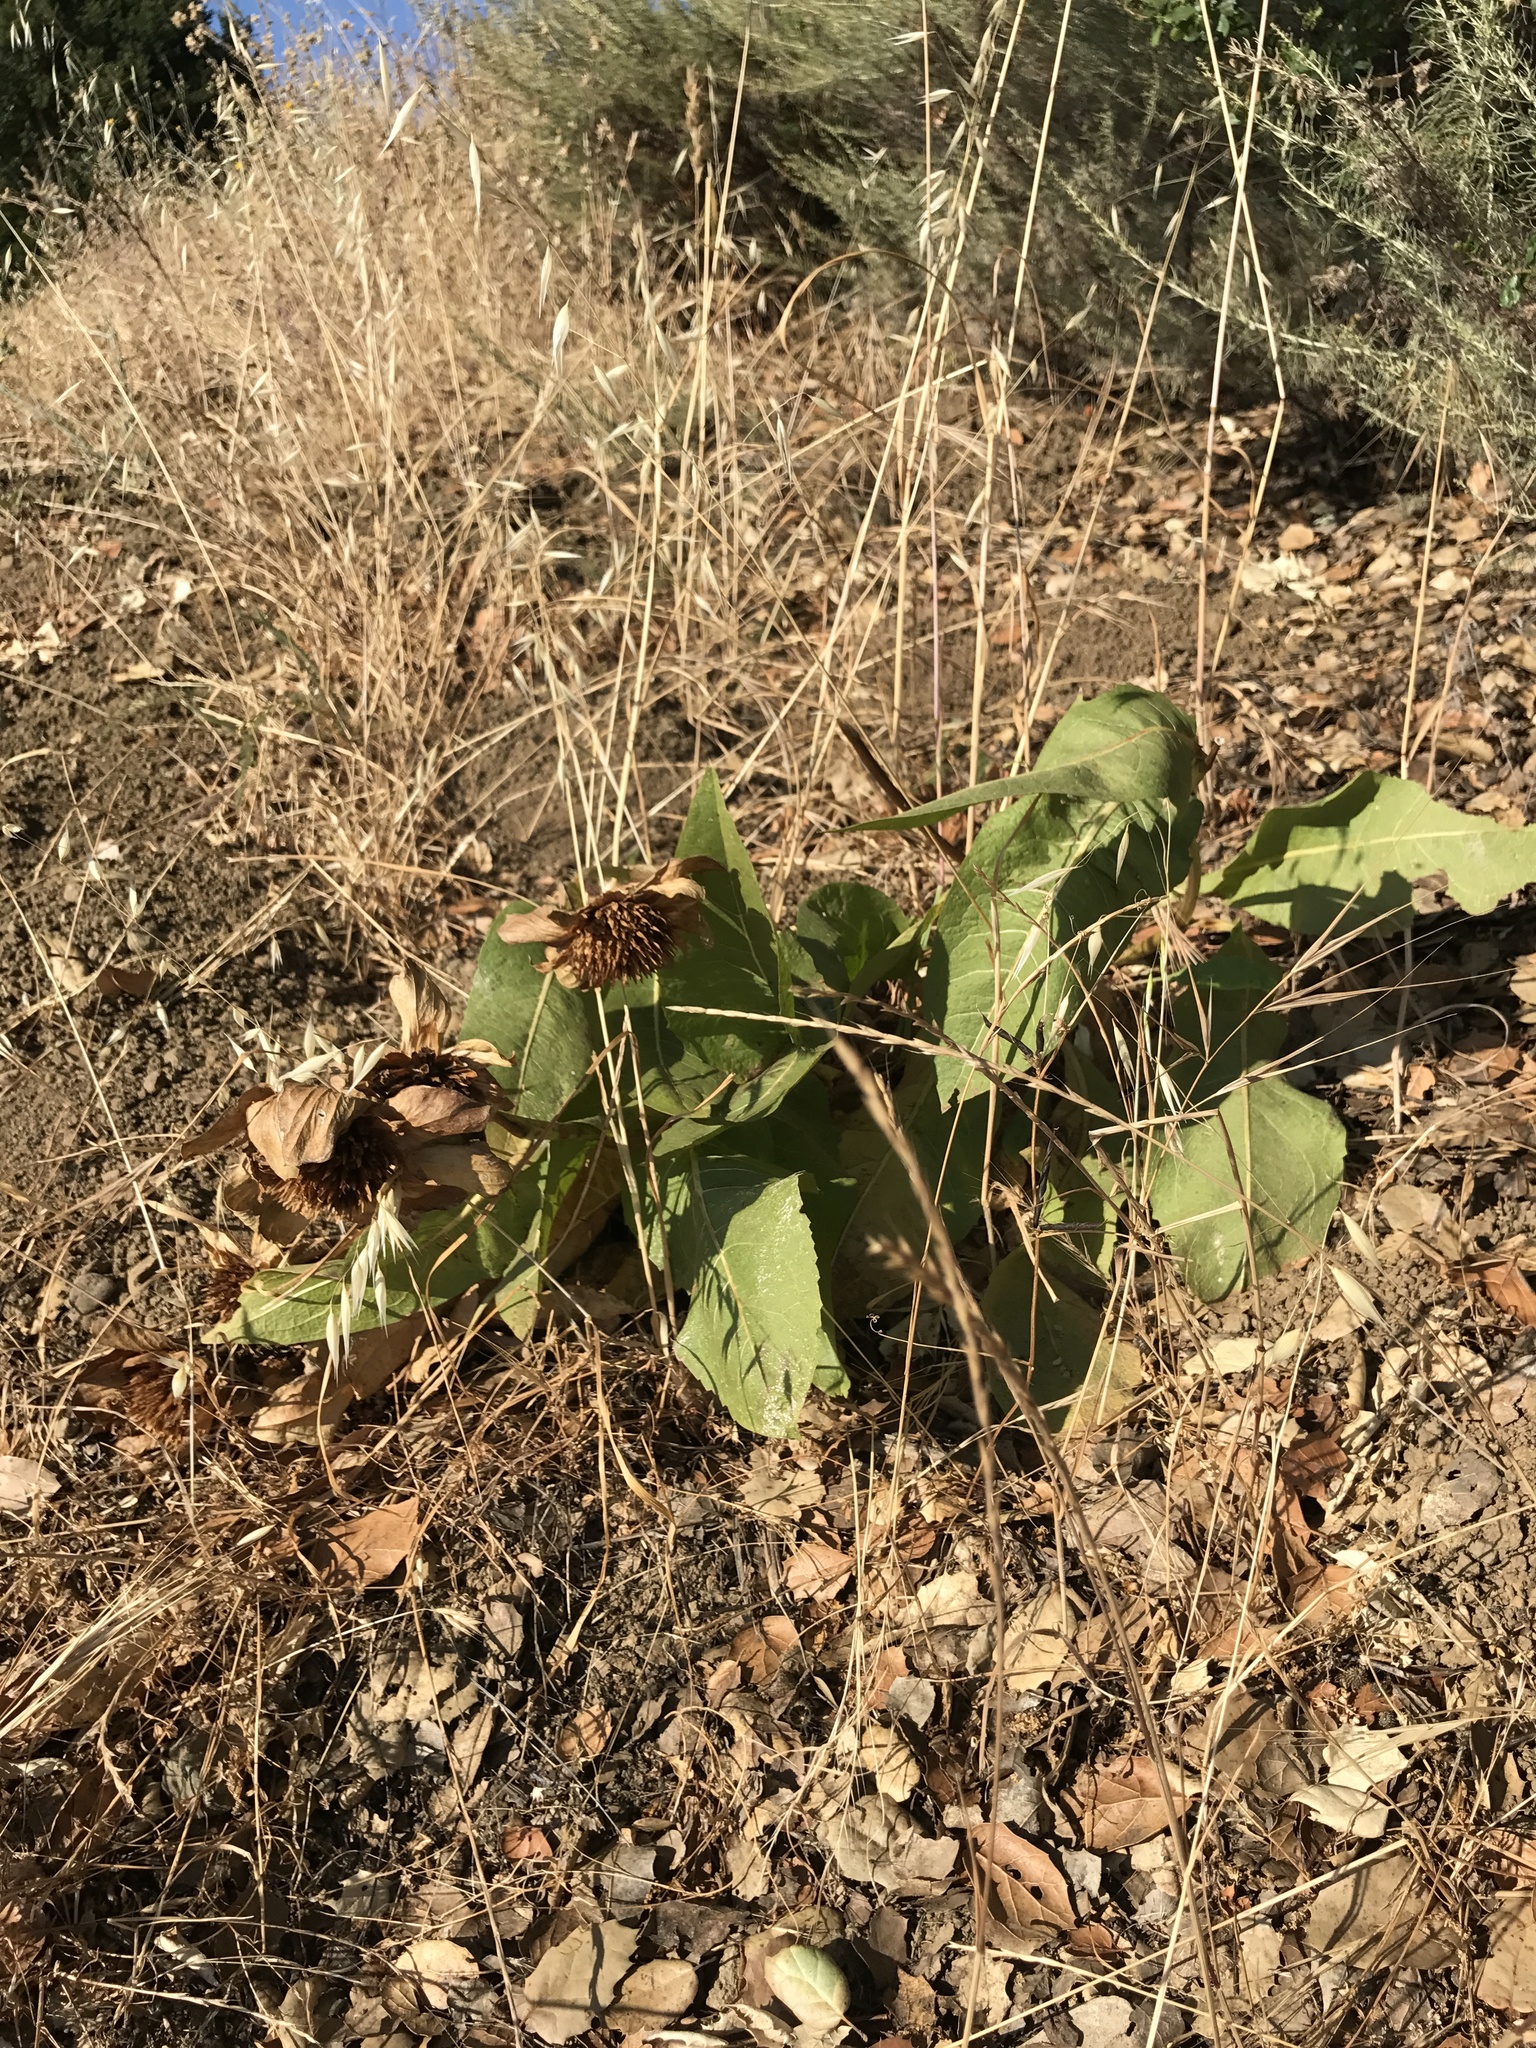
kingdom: Plantae
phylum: Tracheophyta
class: Magnoliopsida
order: Asterales
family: Asteraceae
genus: Wyethia
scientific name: Wyethia glabra
